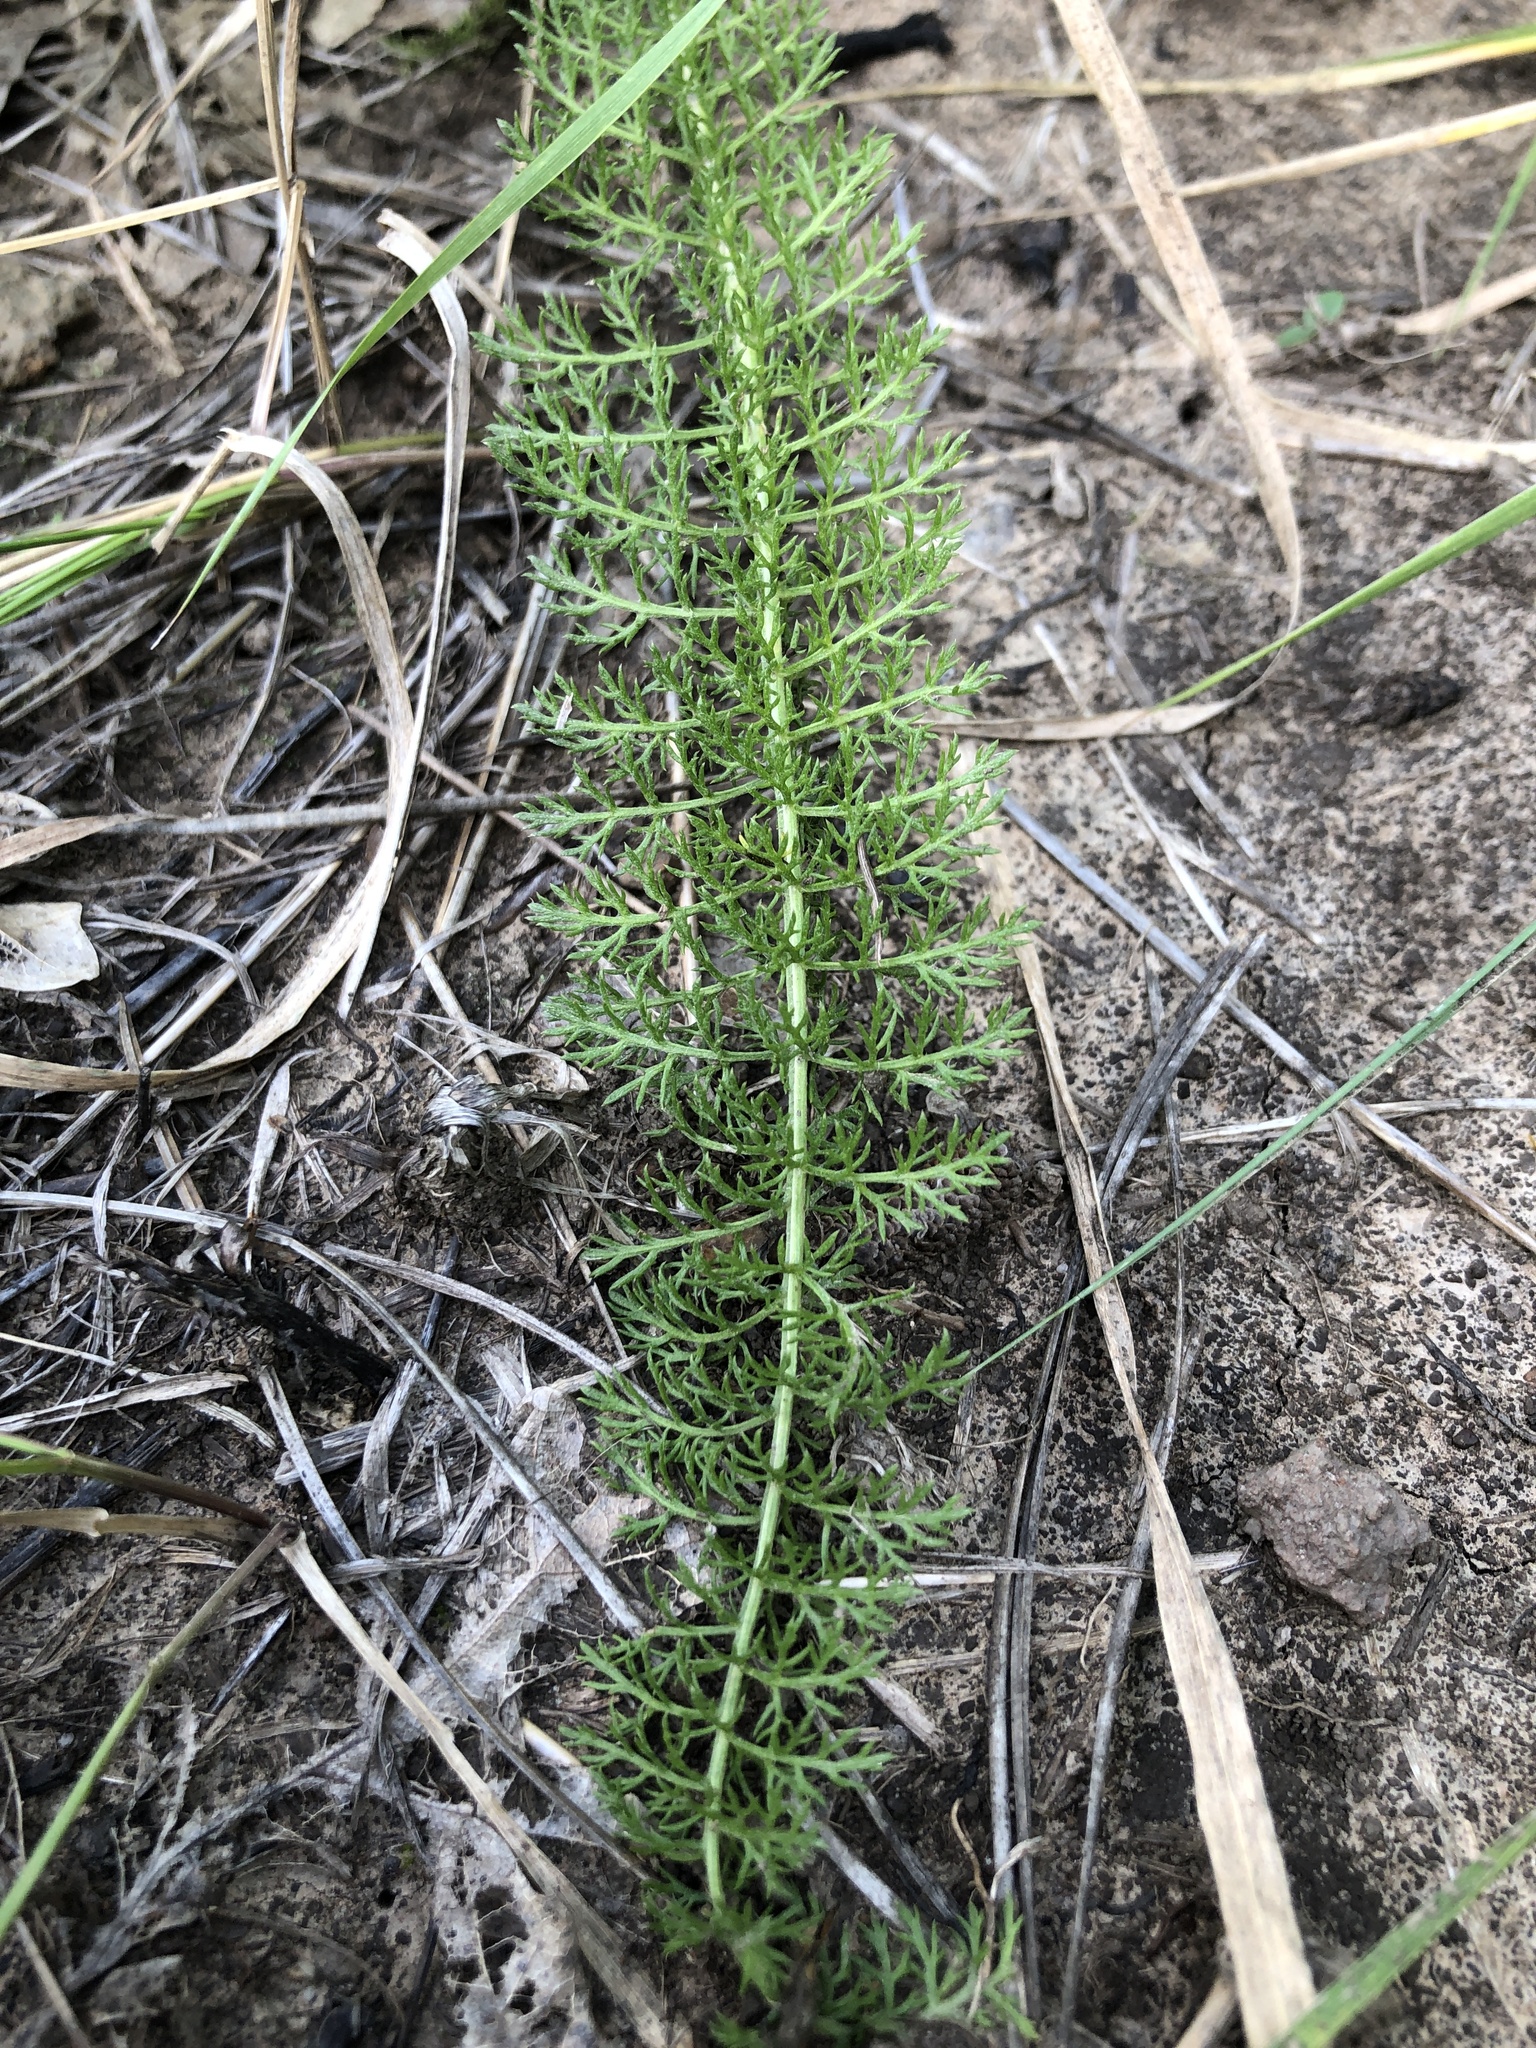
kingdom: Plantae
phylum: Tracheophyta
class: Magnoliopsida
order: Asterales
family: Asteraceae
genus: Achillea
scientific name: Achillea millefolium
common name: Yarrow
